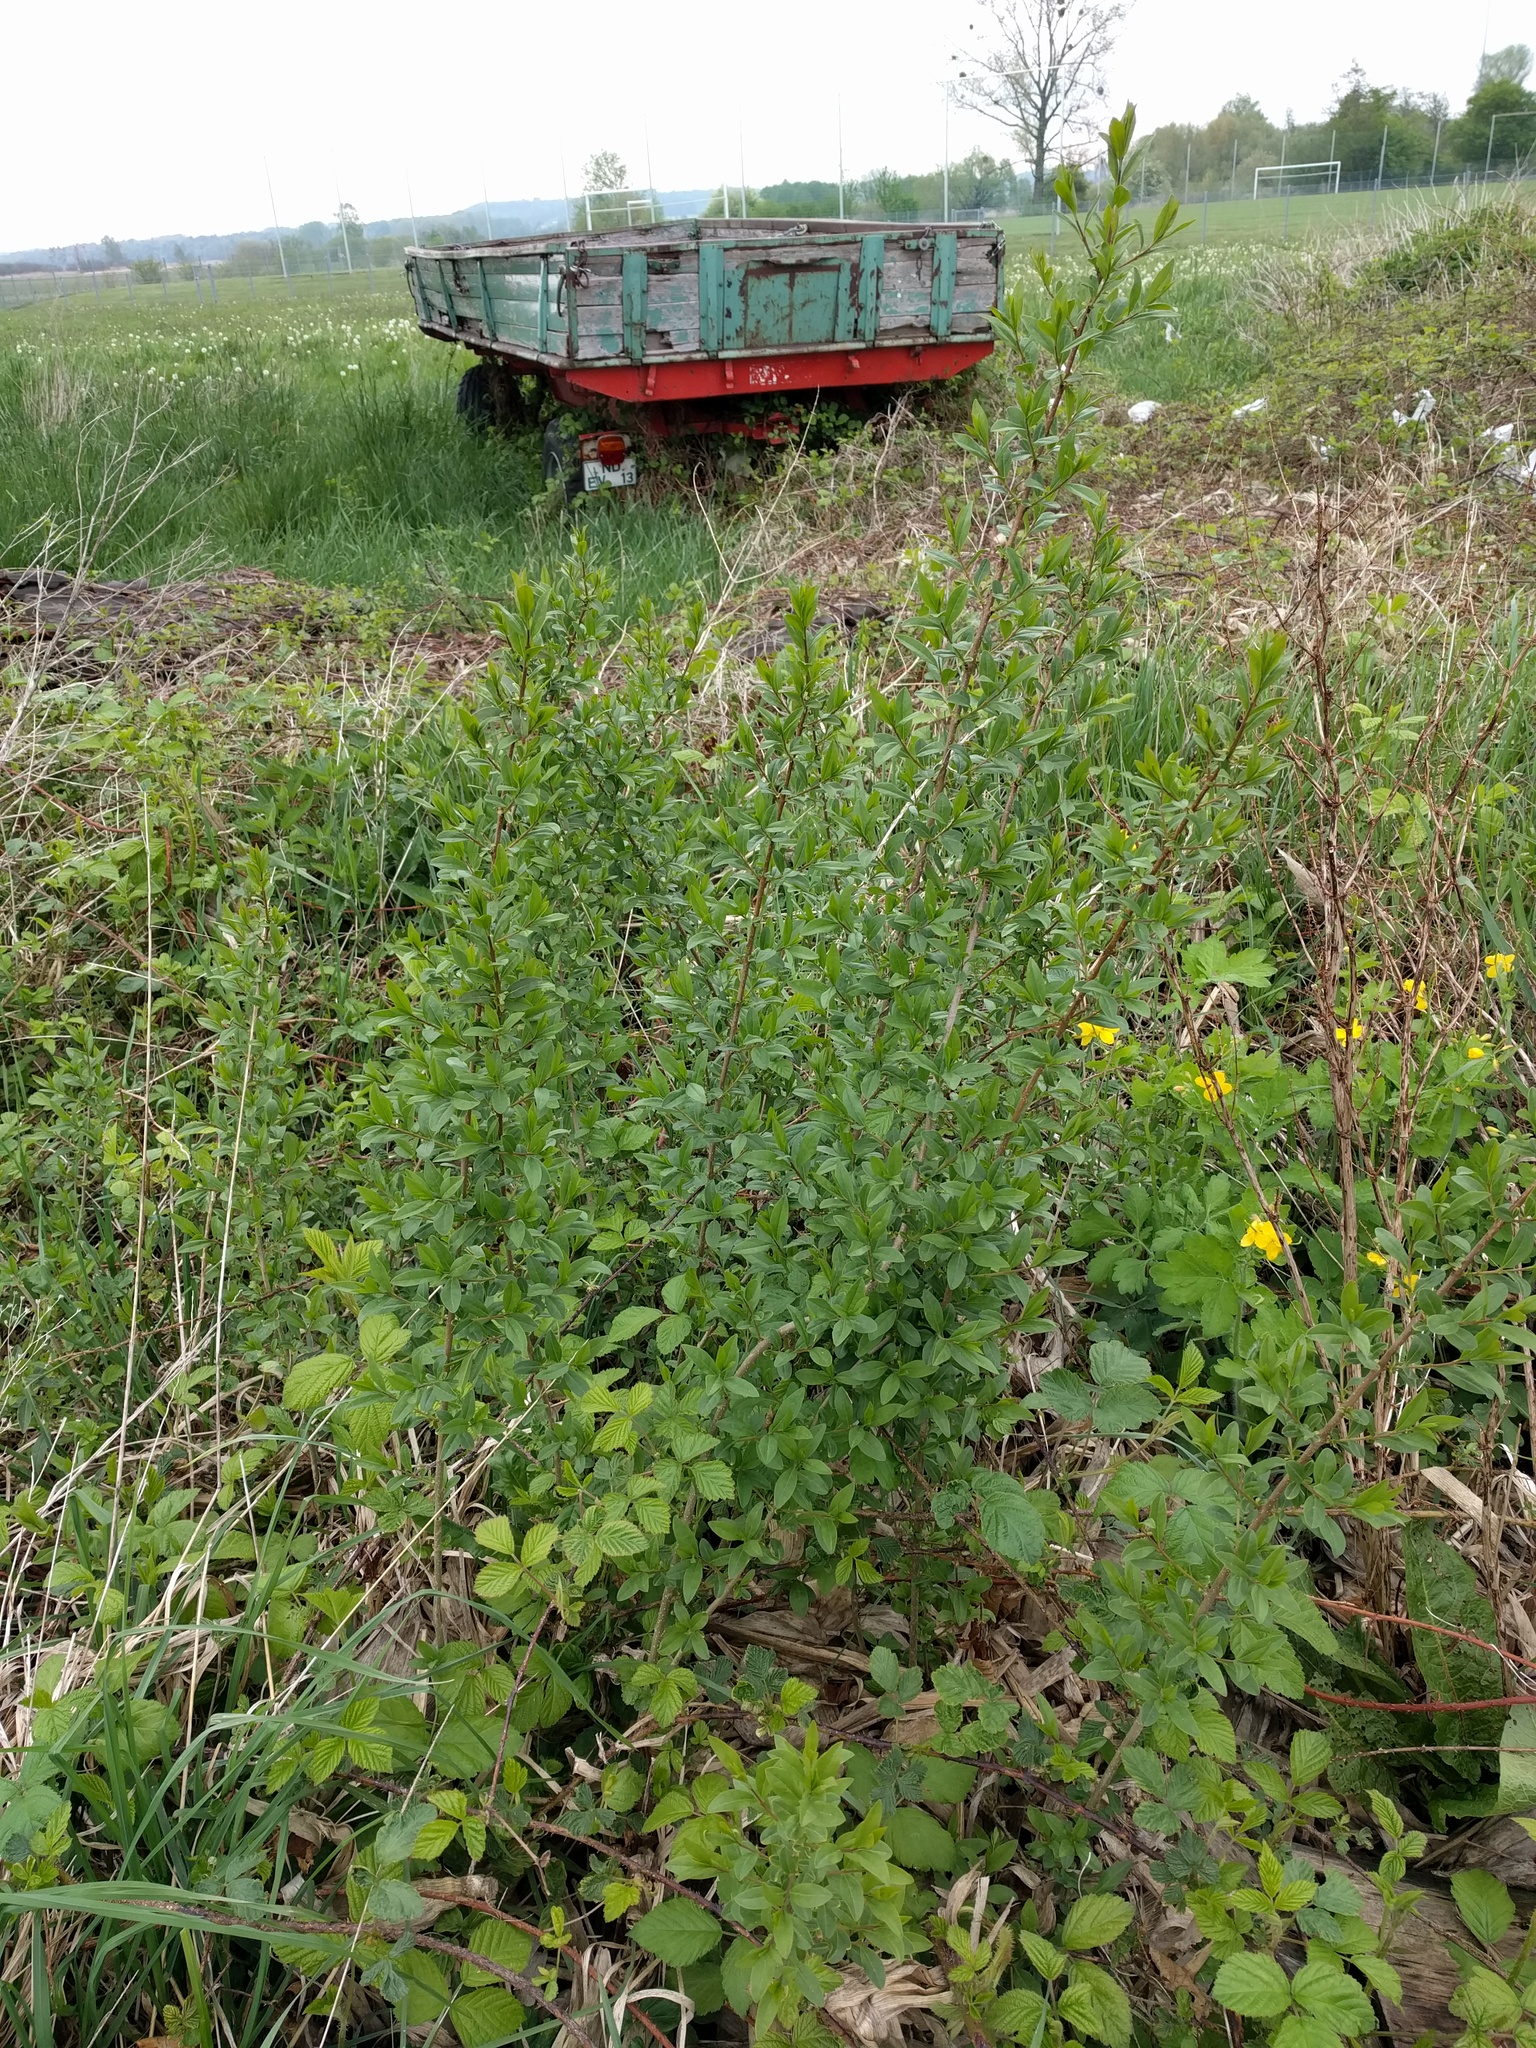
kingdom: Plantae
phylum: Tracheophyta
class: Magnoliopsida
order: Lamiales
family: Oleaceae
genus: Ligustrum
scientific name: Ligustrum vulgare
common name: Wild privet
